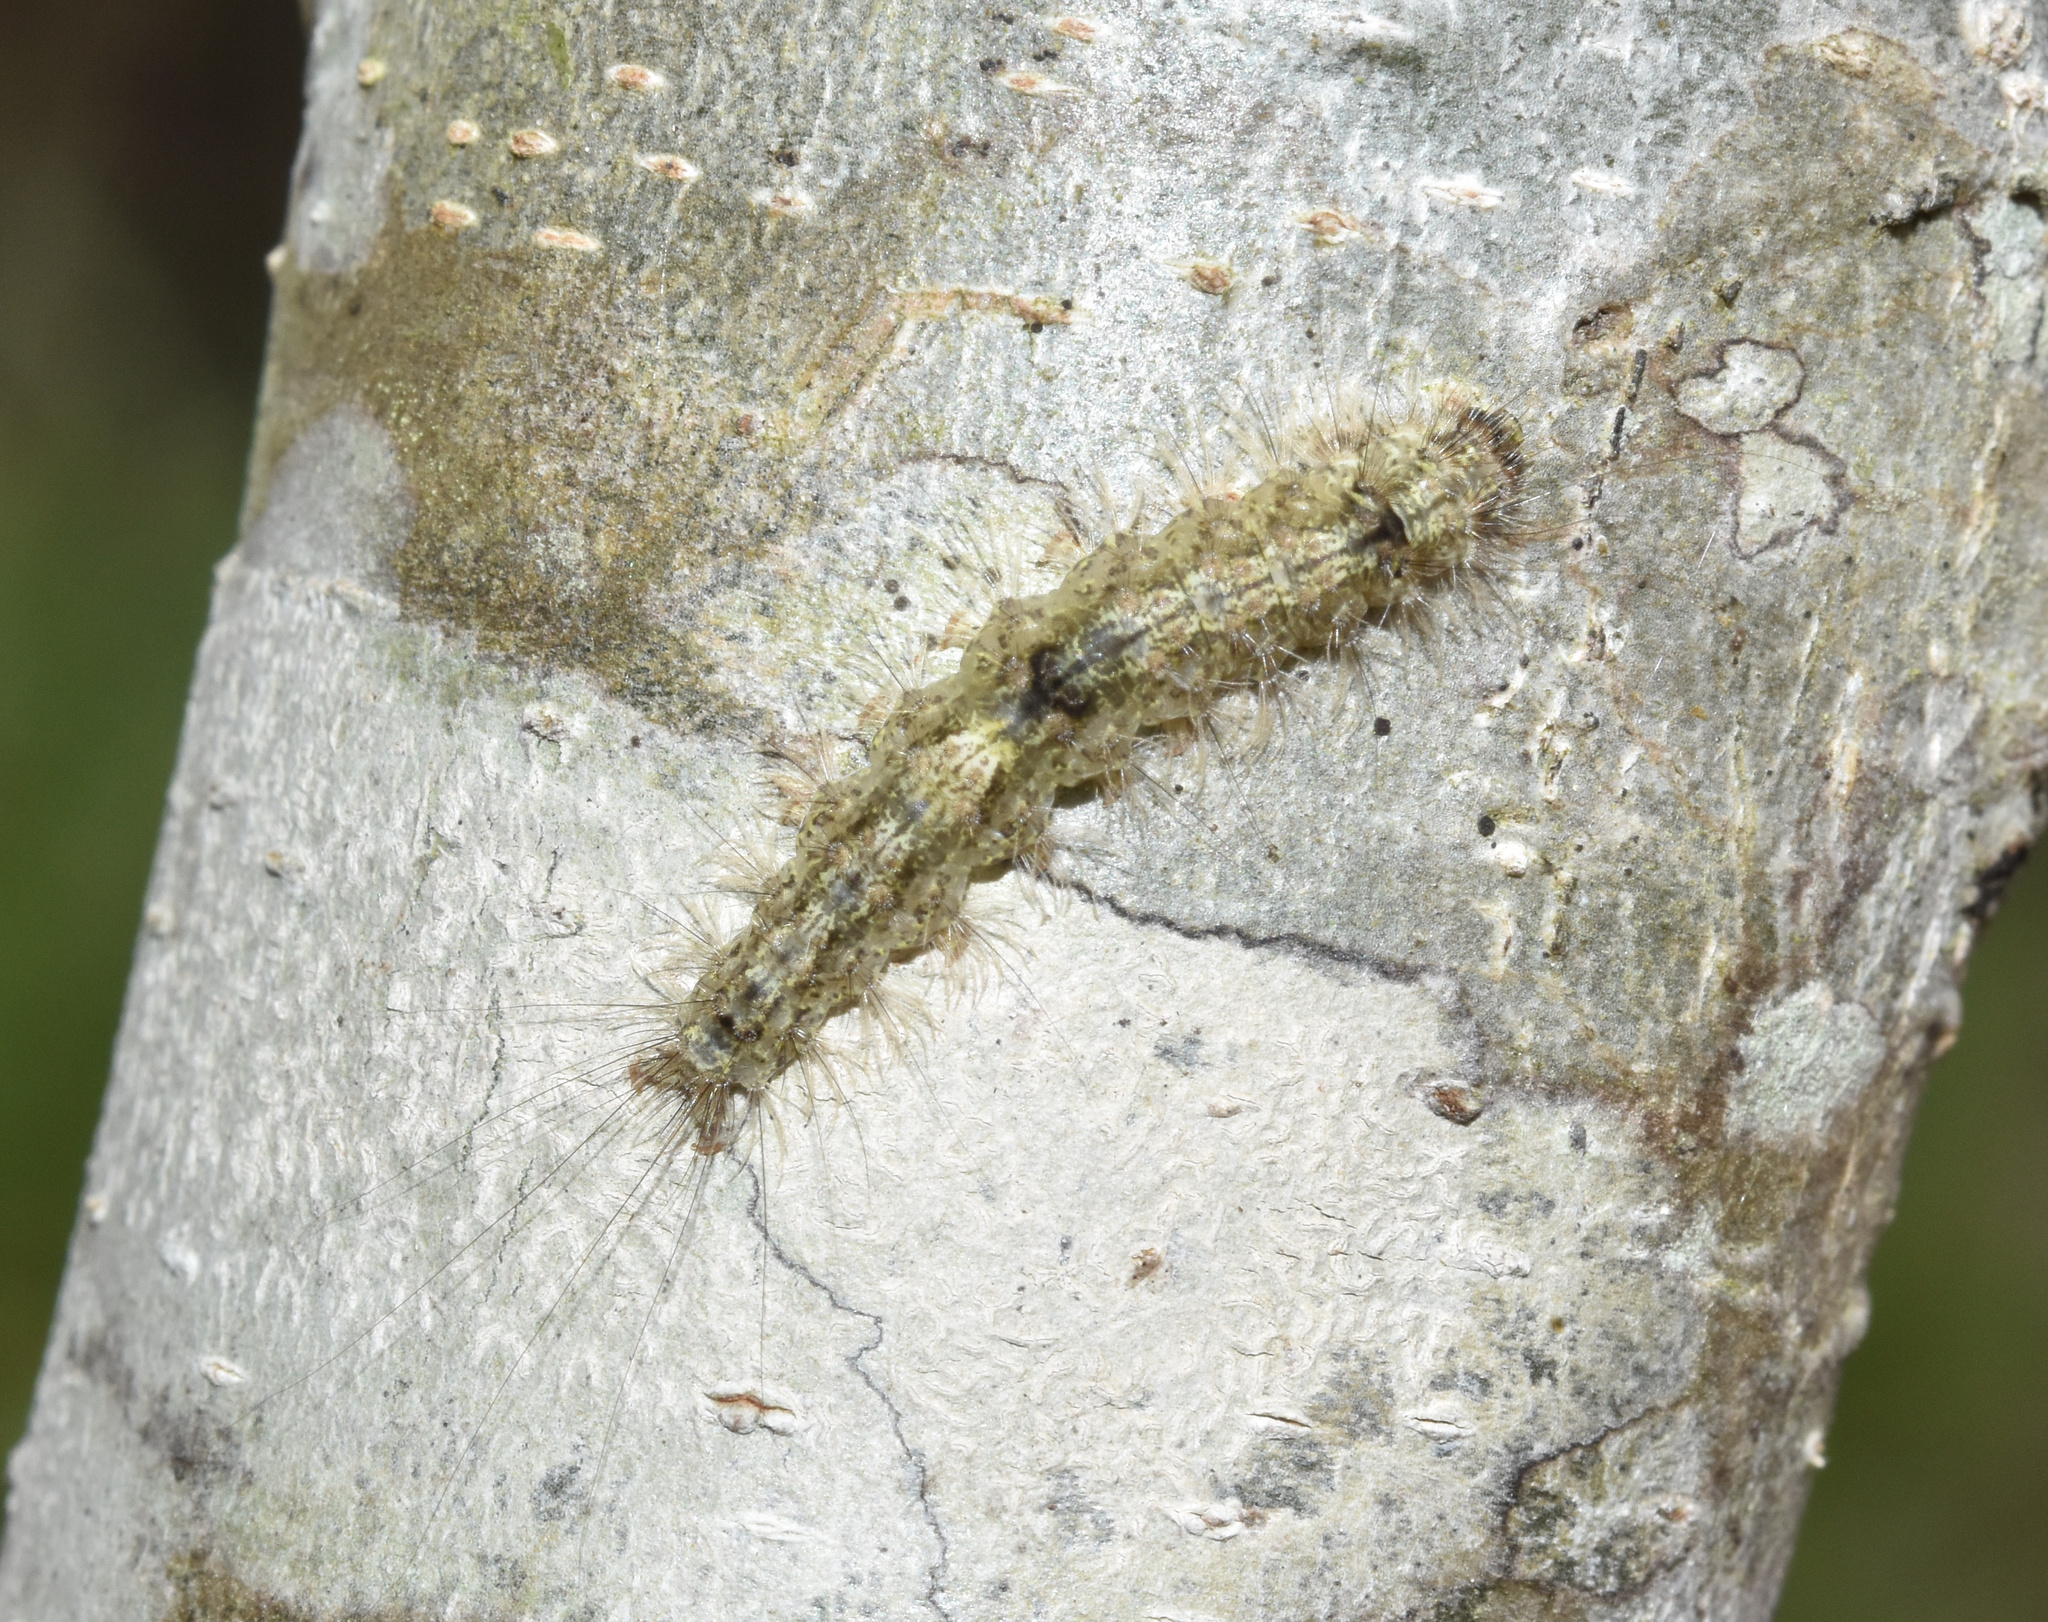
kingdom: Animalia
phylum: Arthropoda
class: Insecta
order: Lepidoptera
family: Erebidae
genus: Brunia
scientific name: Brunia vicaria
